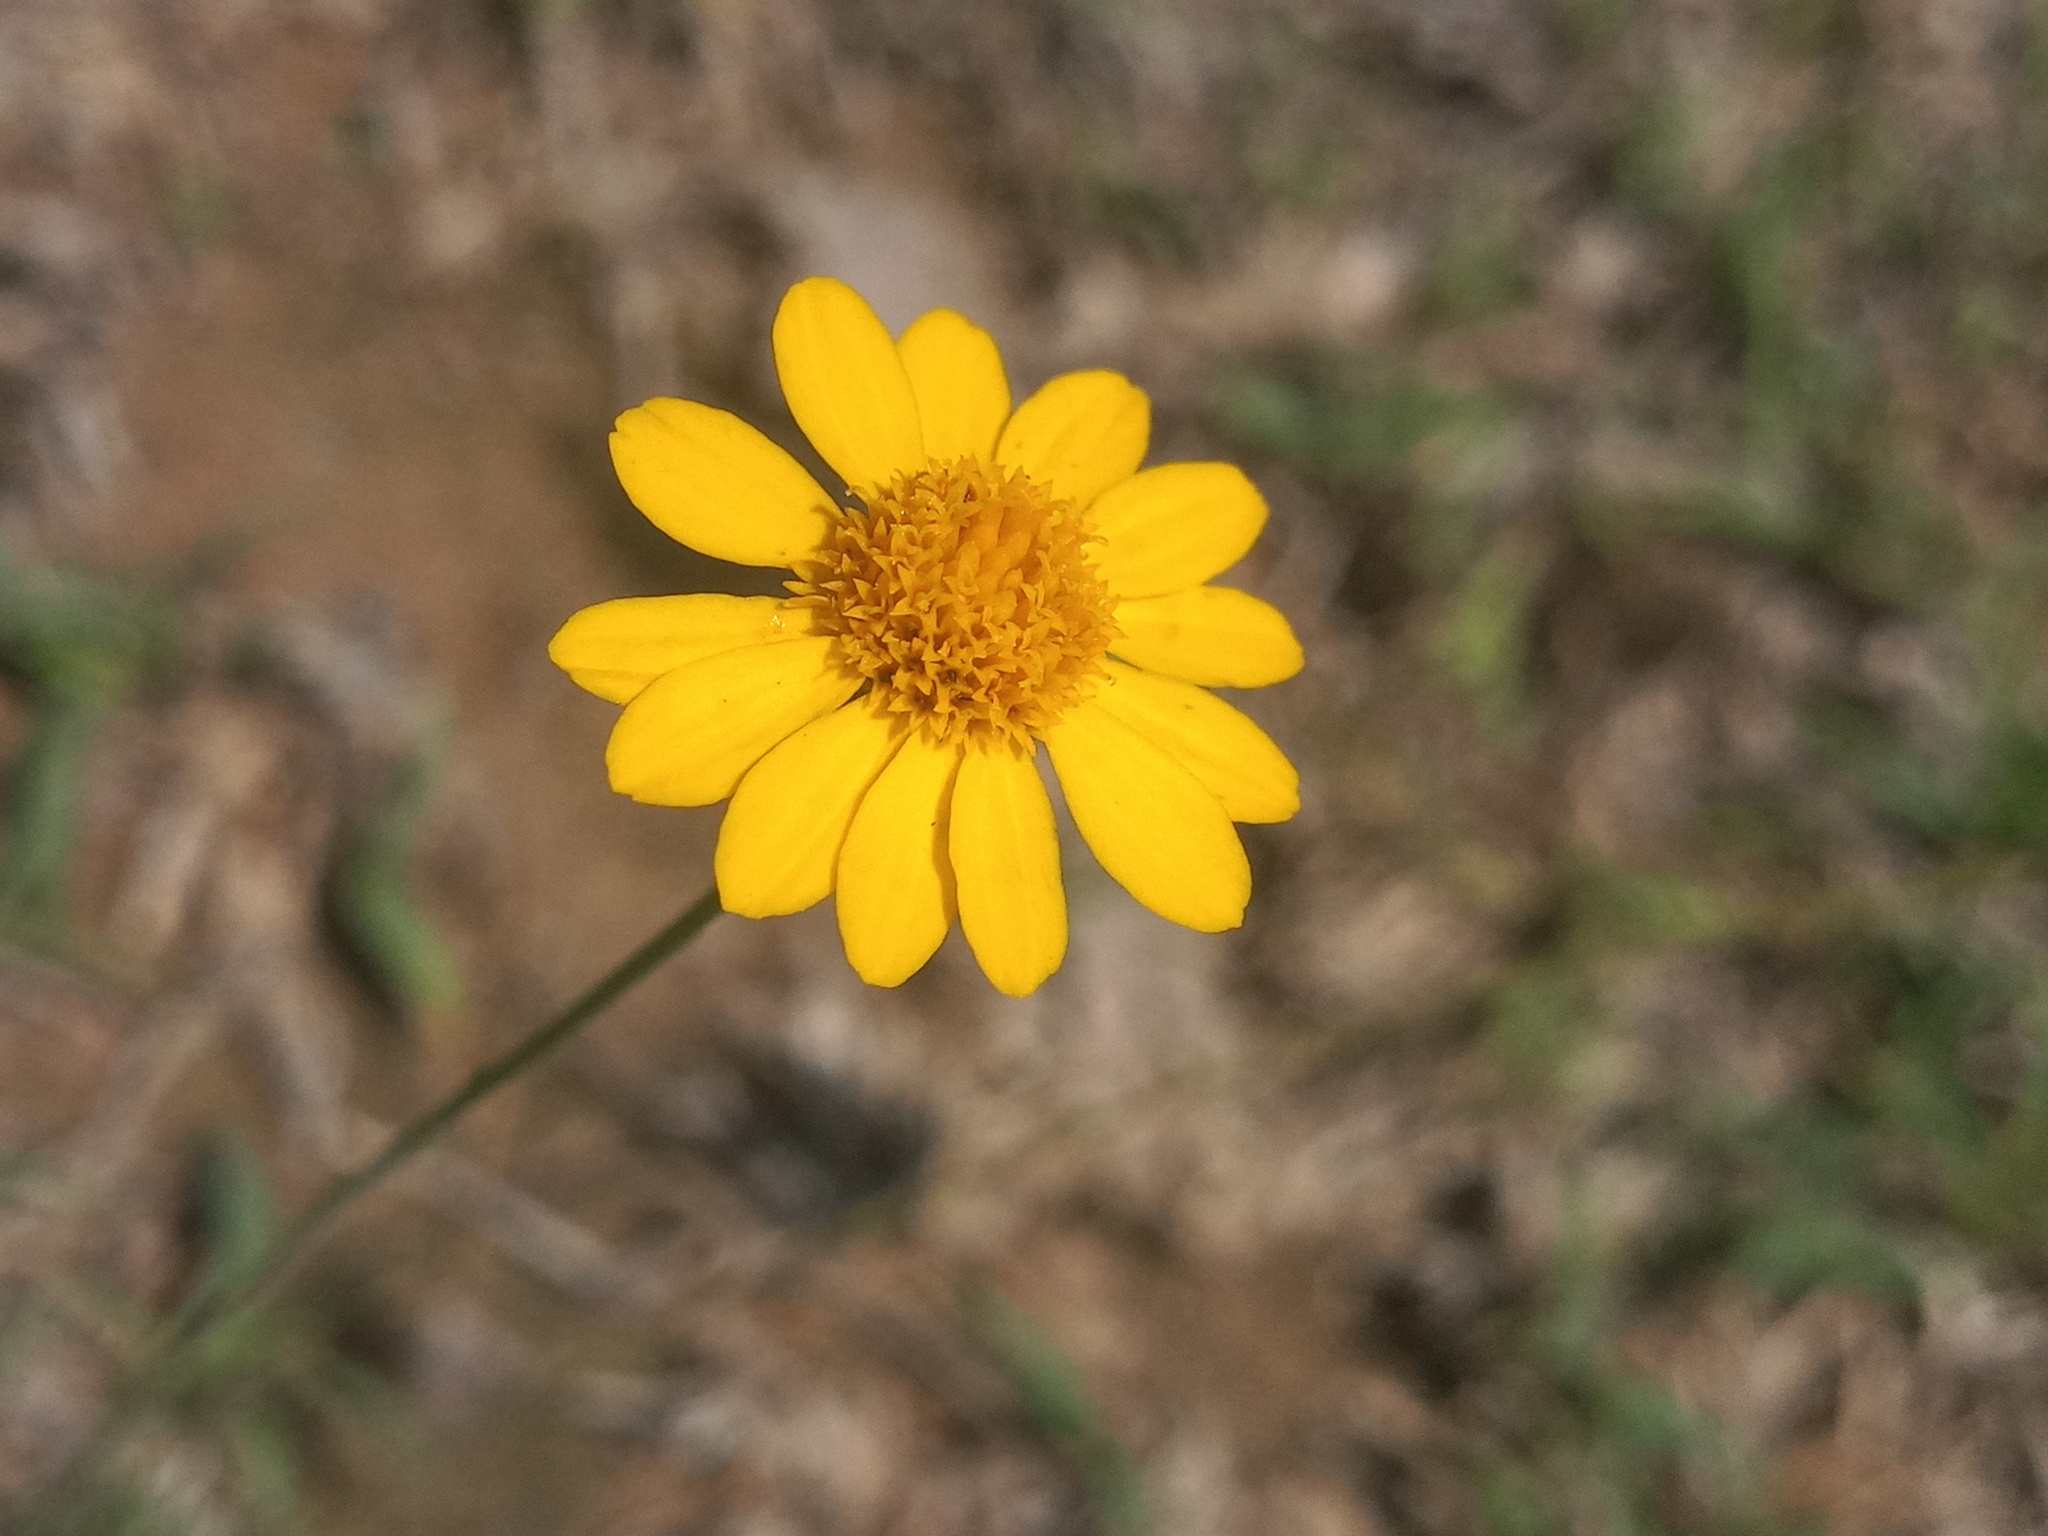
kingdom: Plantae
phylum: Tracheophyta
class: Magnoliopsida
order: Asterales
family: Asteraceae
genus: Thymophylla
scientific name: Thymophylla pentachaeta
